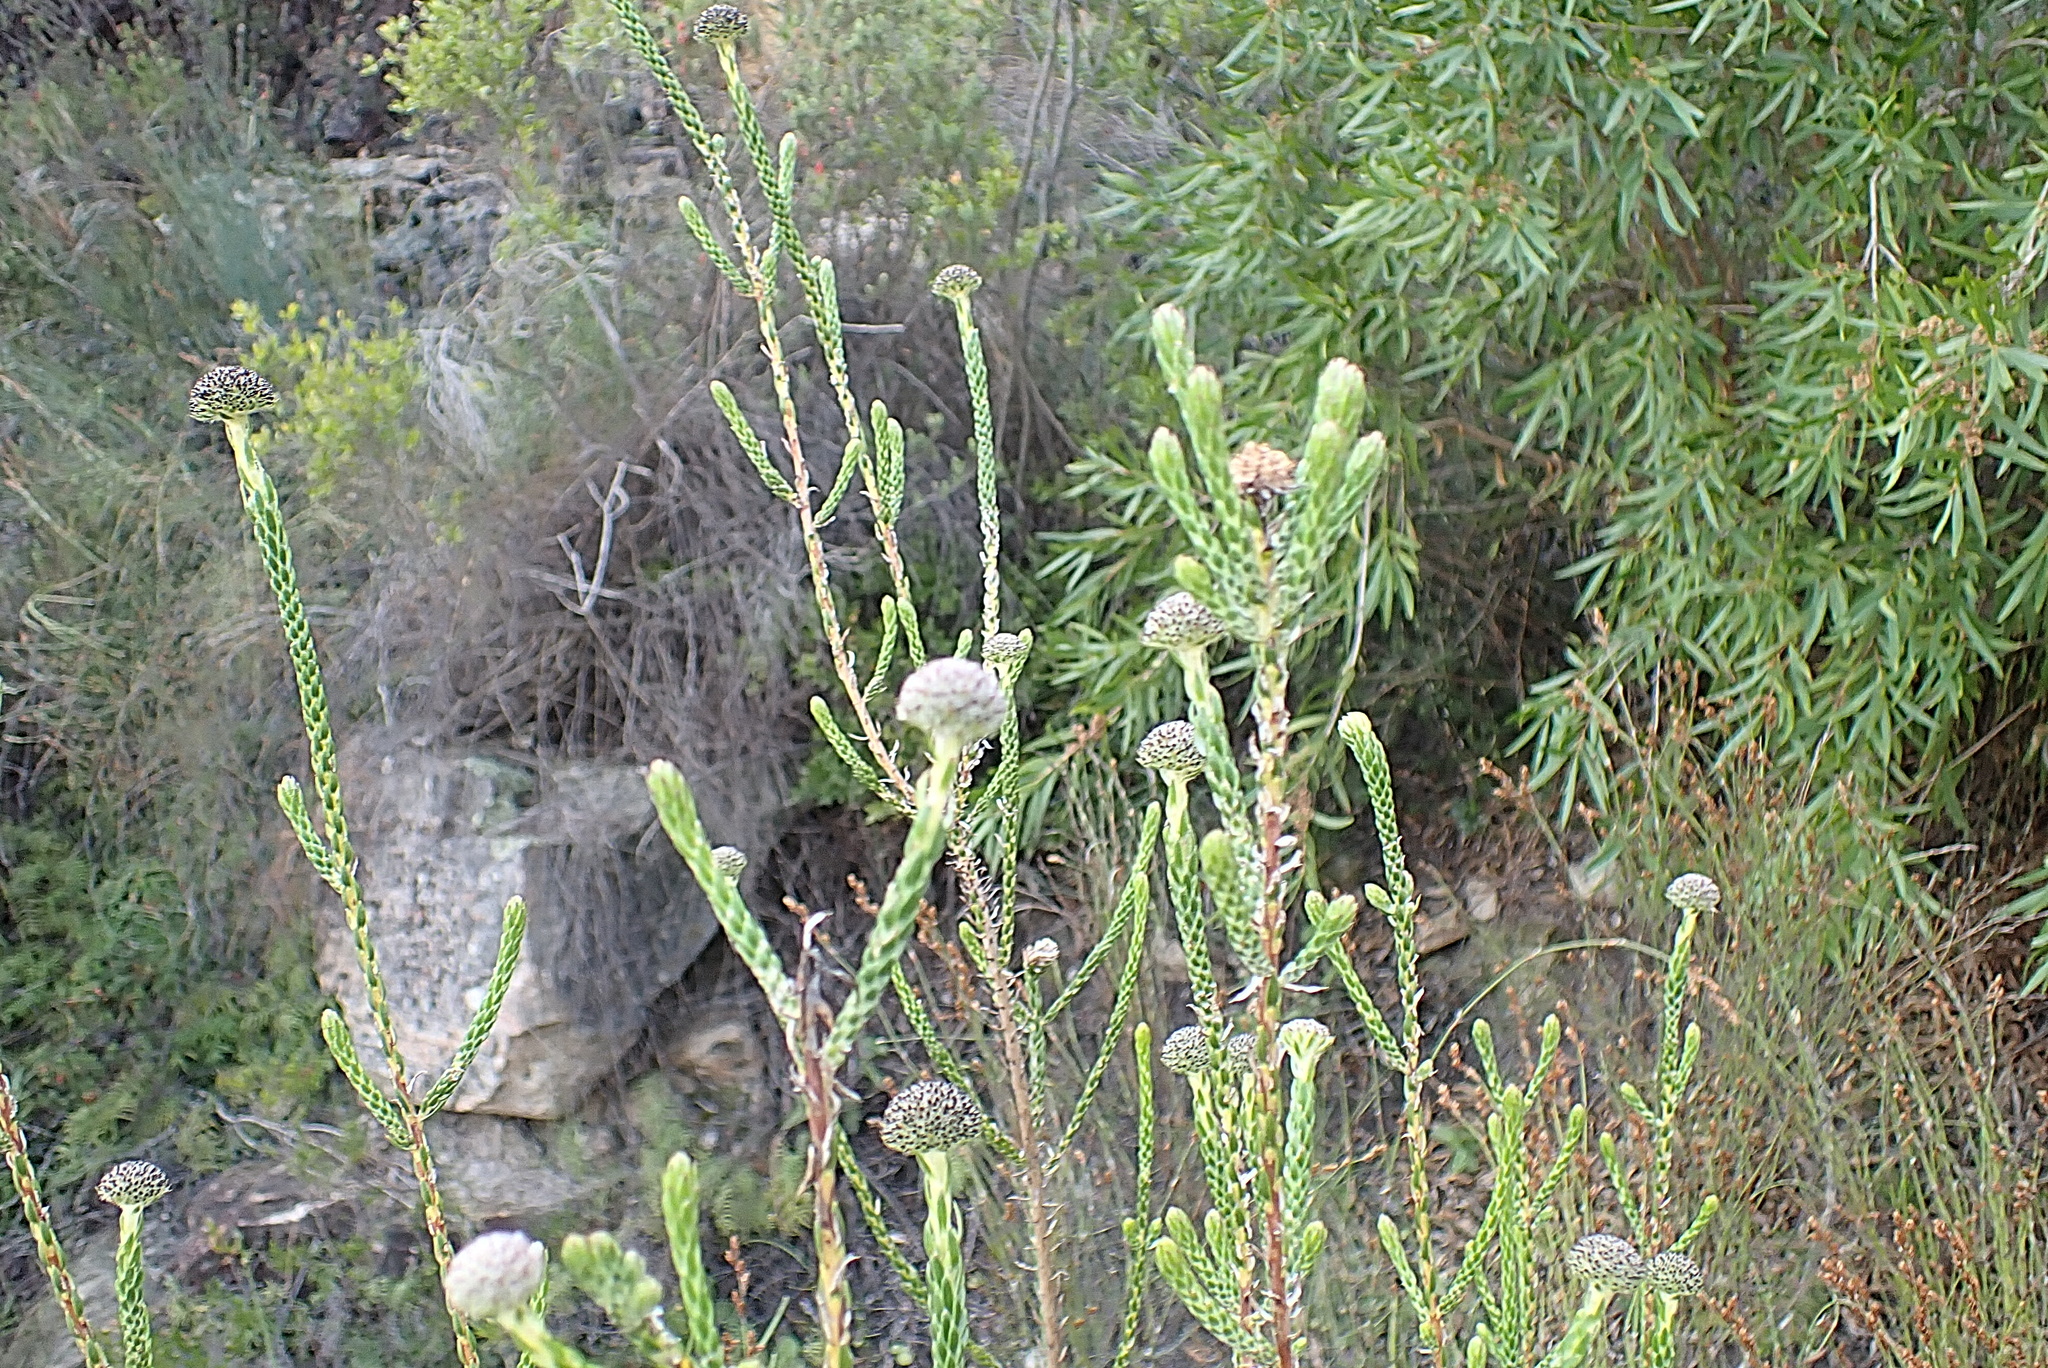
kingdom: Plantae
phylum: Tracheophyta
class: Magnoliopsida
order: Asterales
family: Asteraceae
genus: Stoebe
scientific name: Stoebe aethiopica
